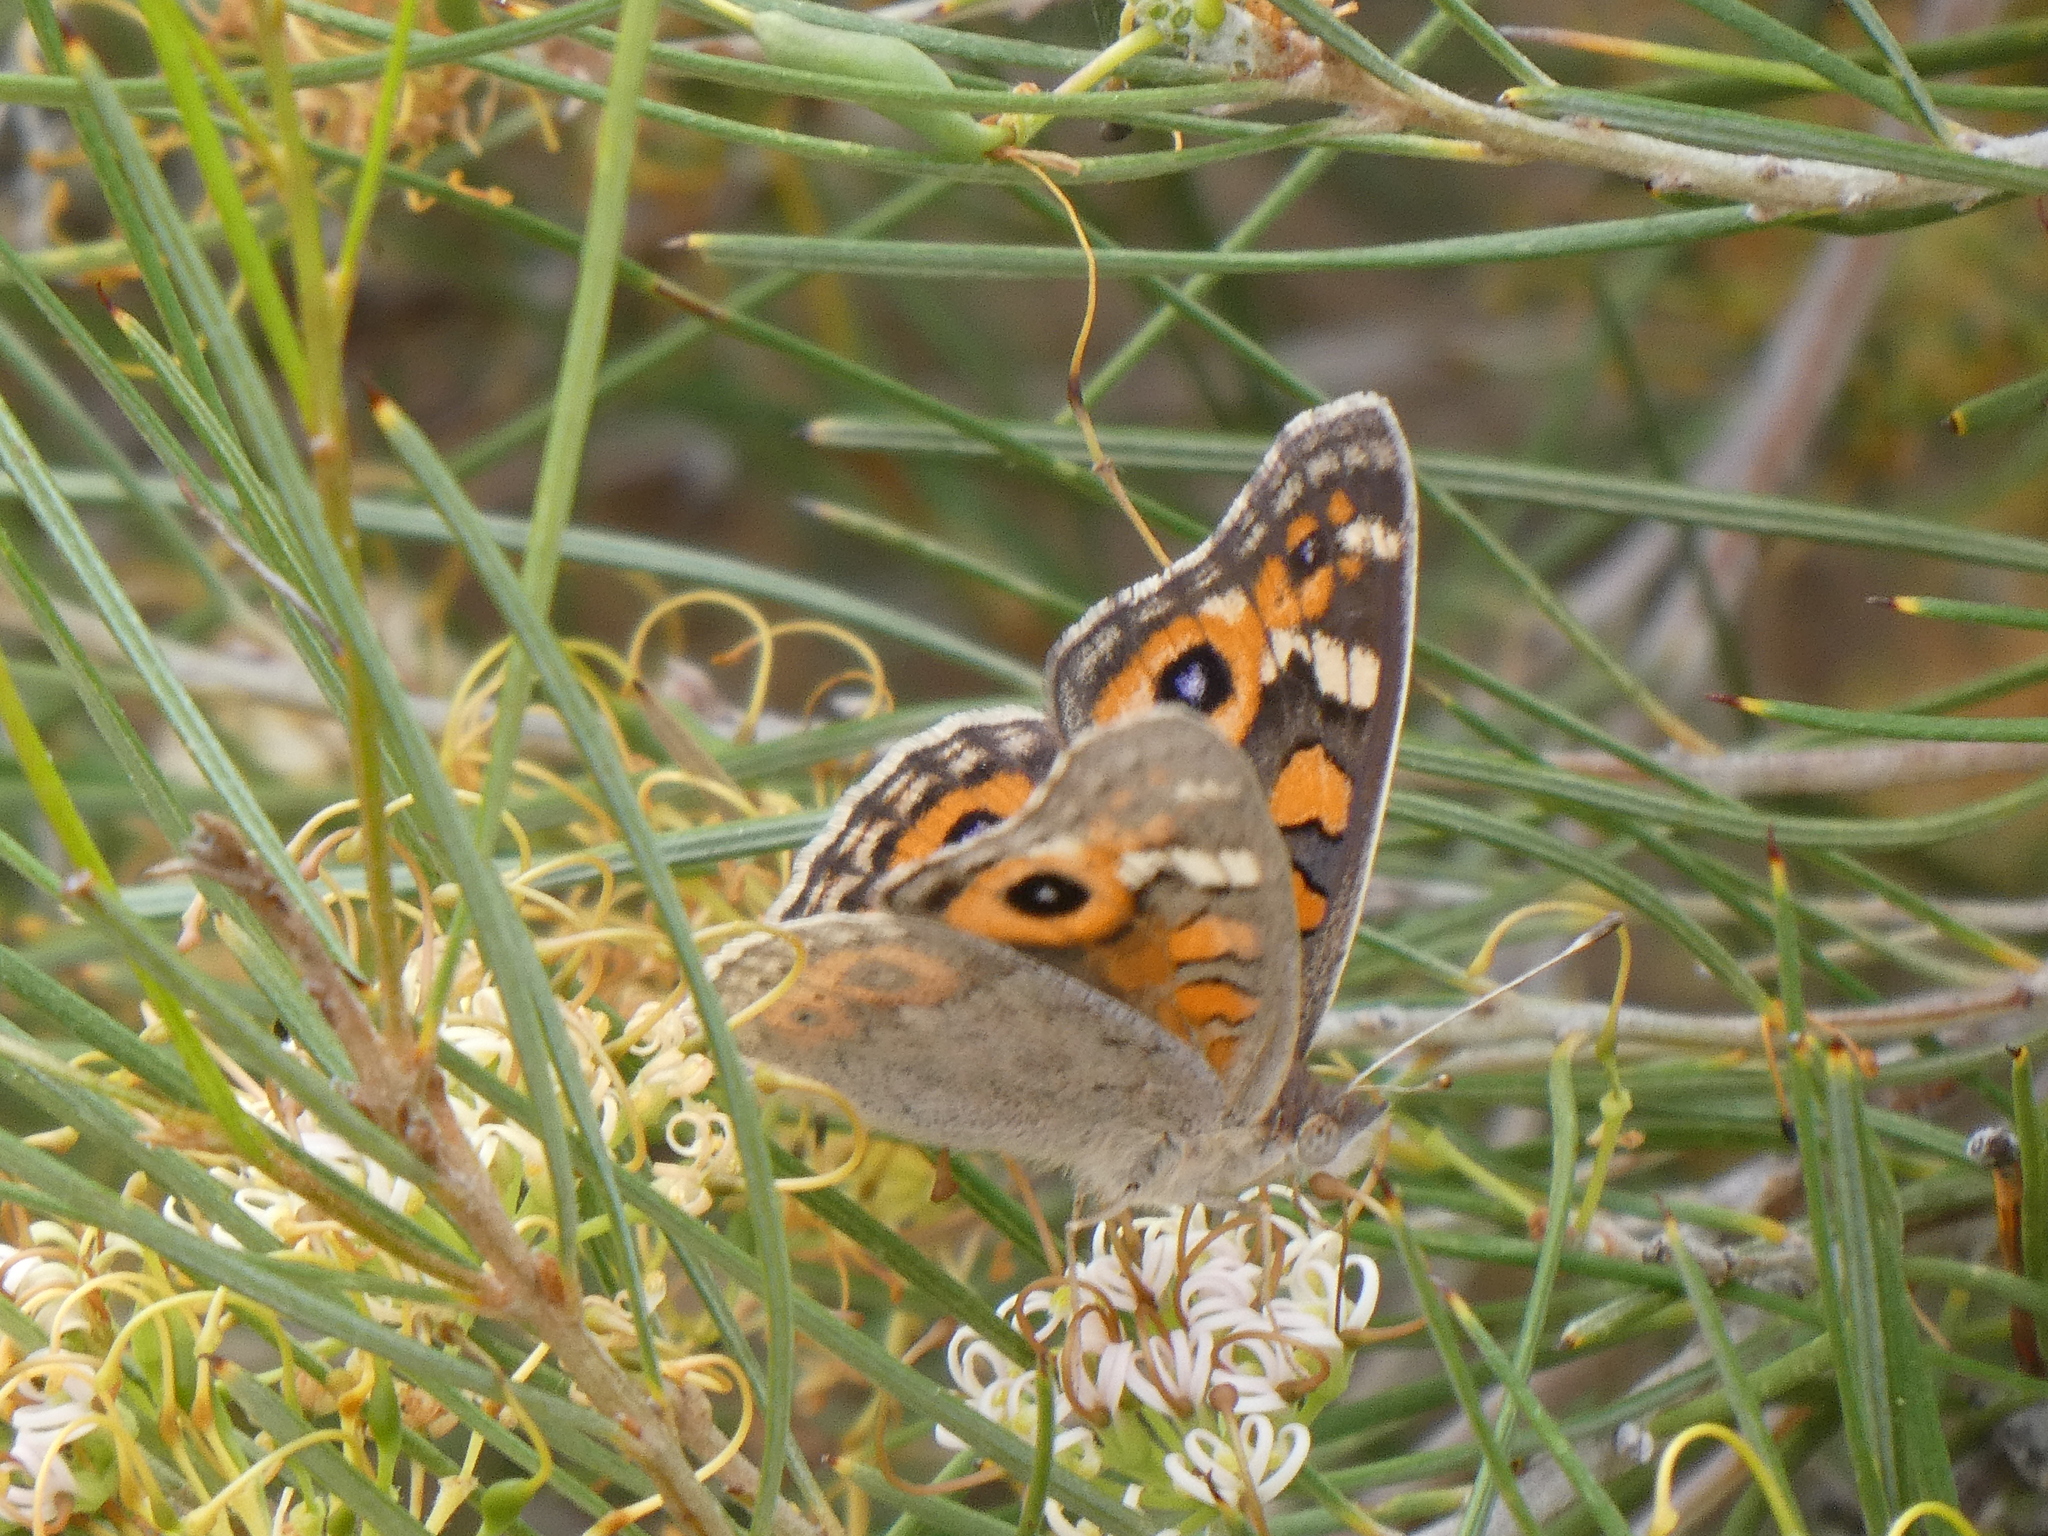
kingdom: Animalia
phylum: Arthropoda
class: Insecta
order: Lepidoptera
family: Nymphalidae
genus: Junonia
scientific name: Junonia villida
